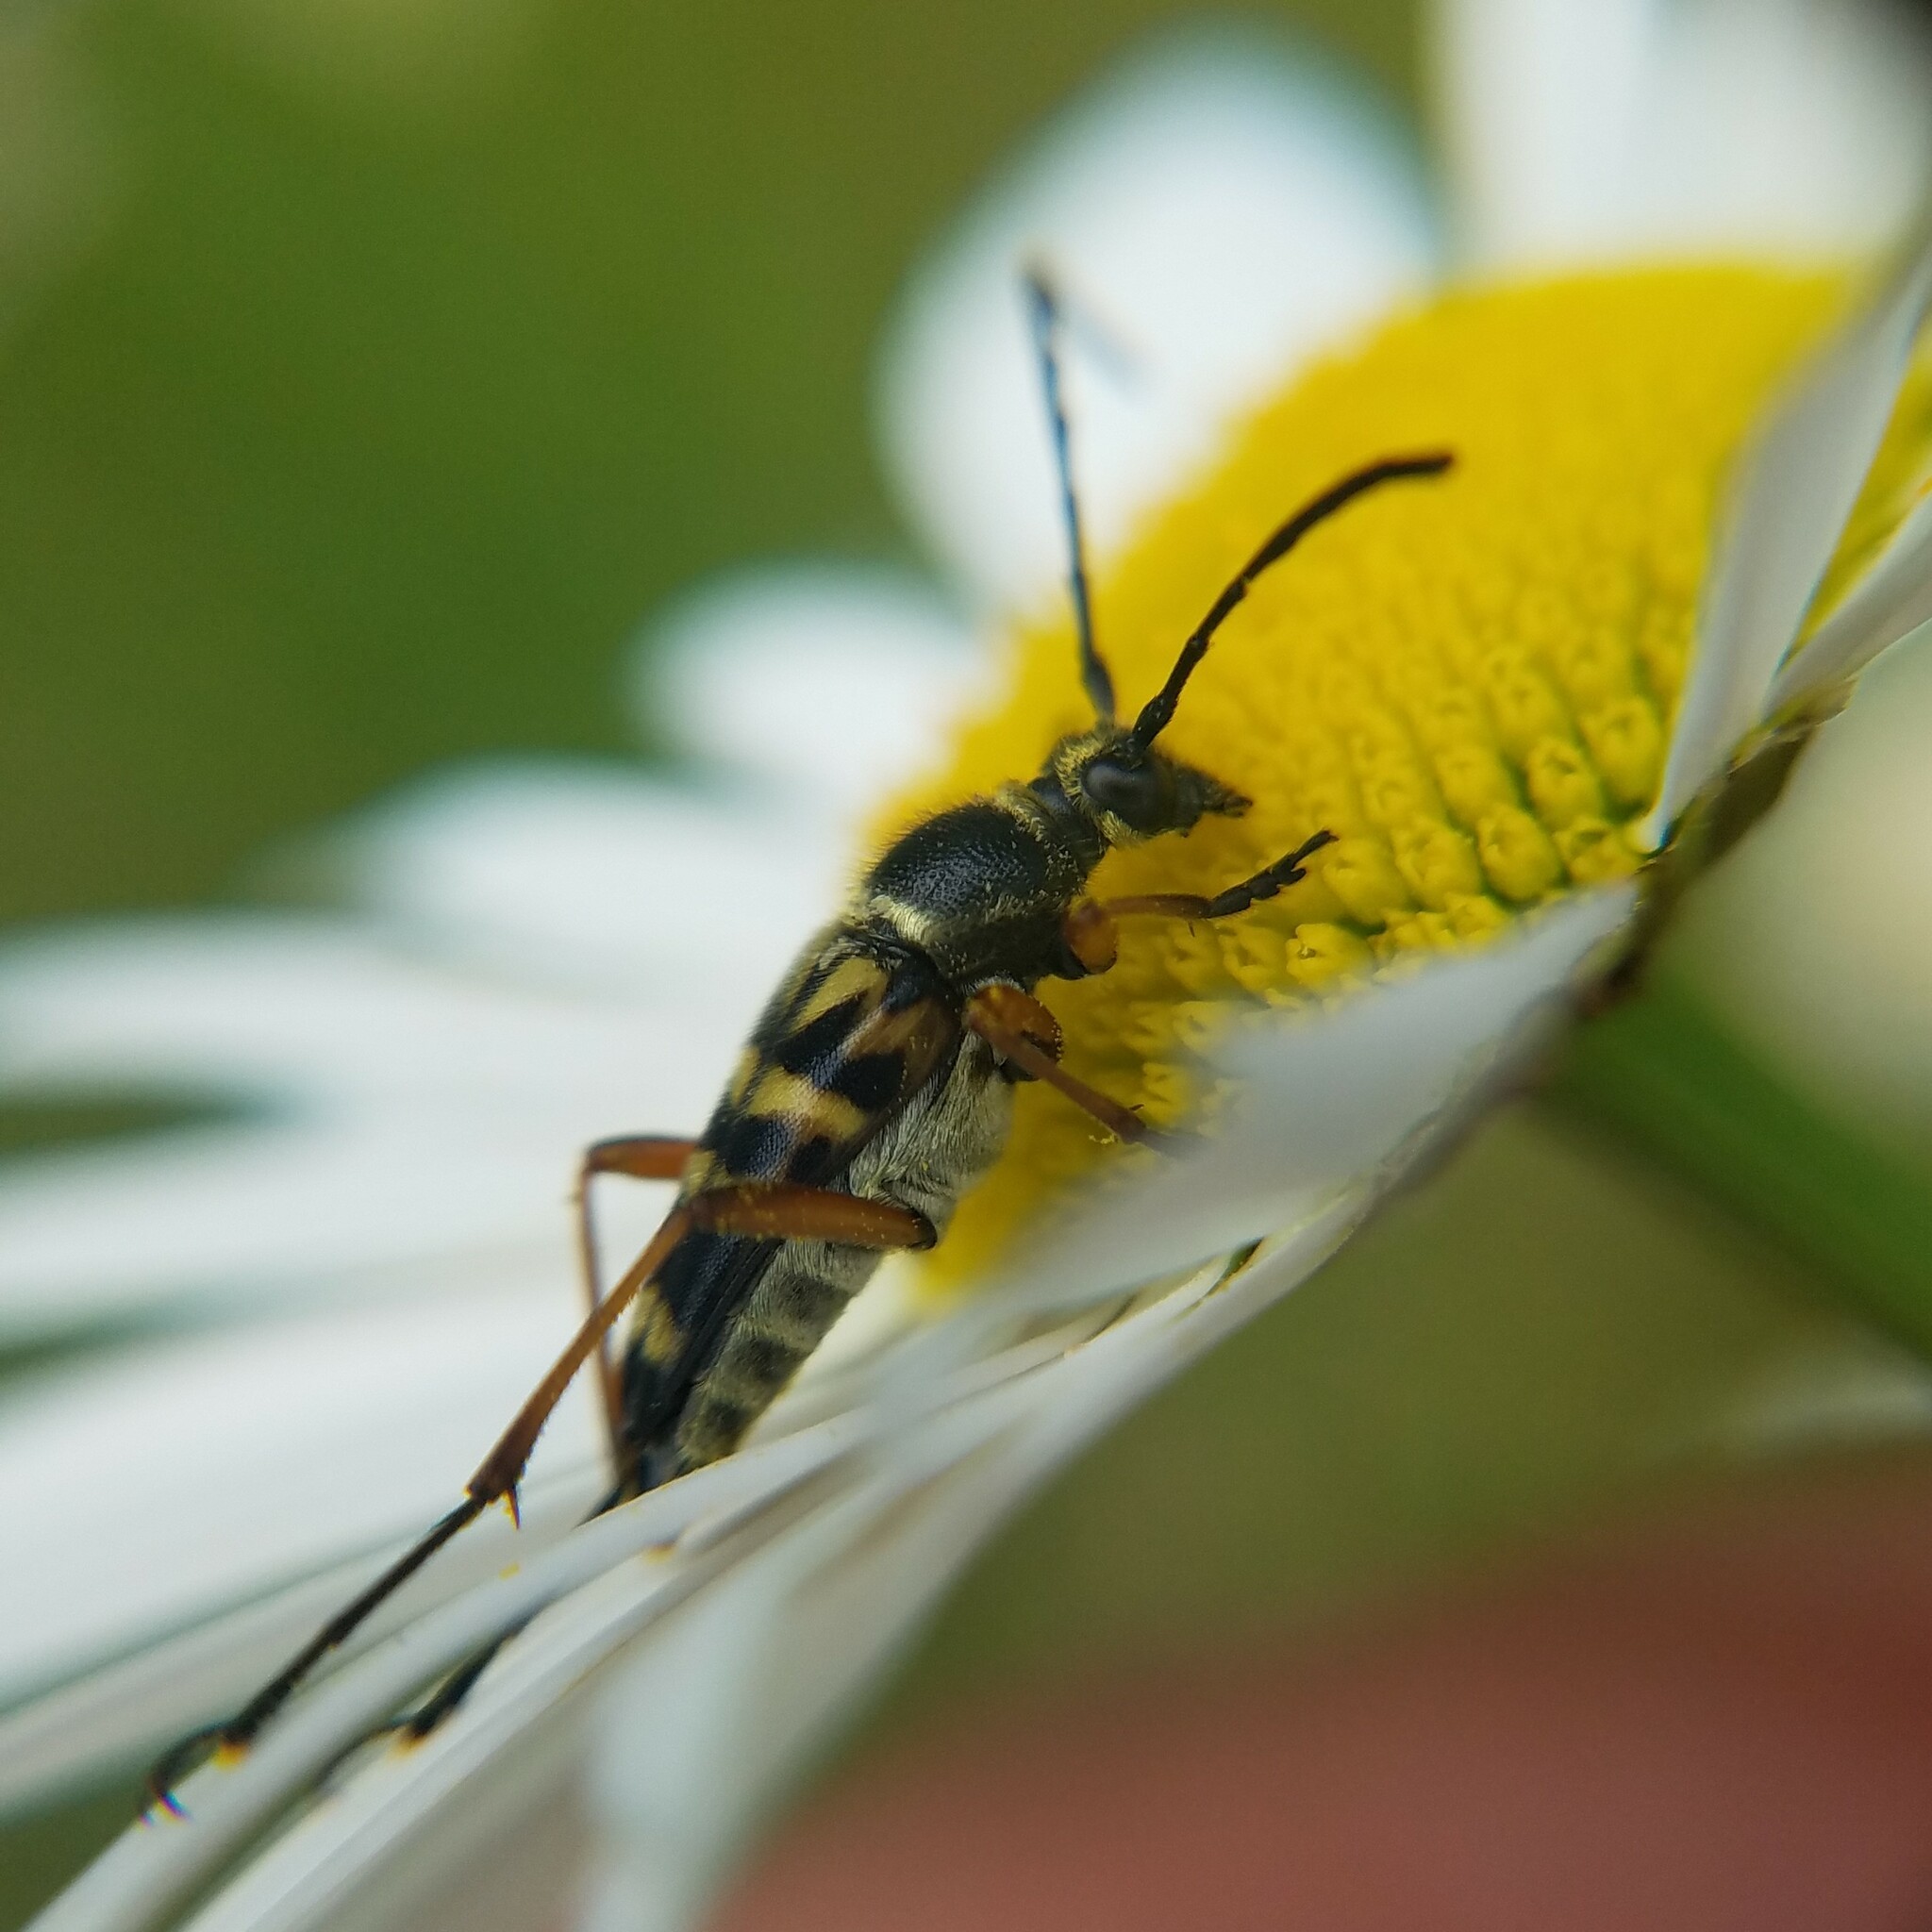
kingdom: Animalia
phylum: Arthropoda
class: Insecta
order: Coleoptera
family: Cerambycidae
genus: Typocerus
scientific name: Typocerus zebra
